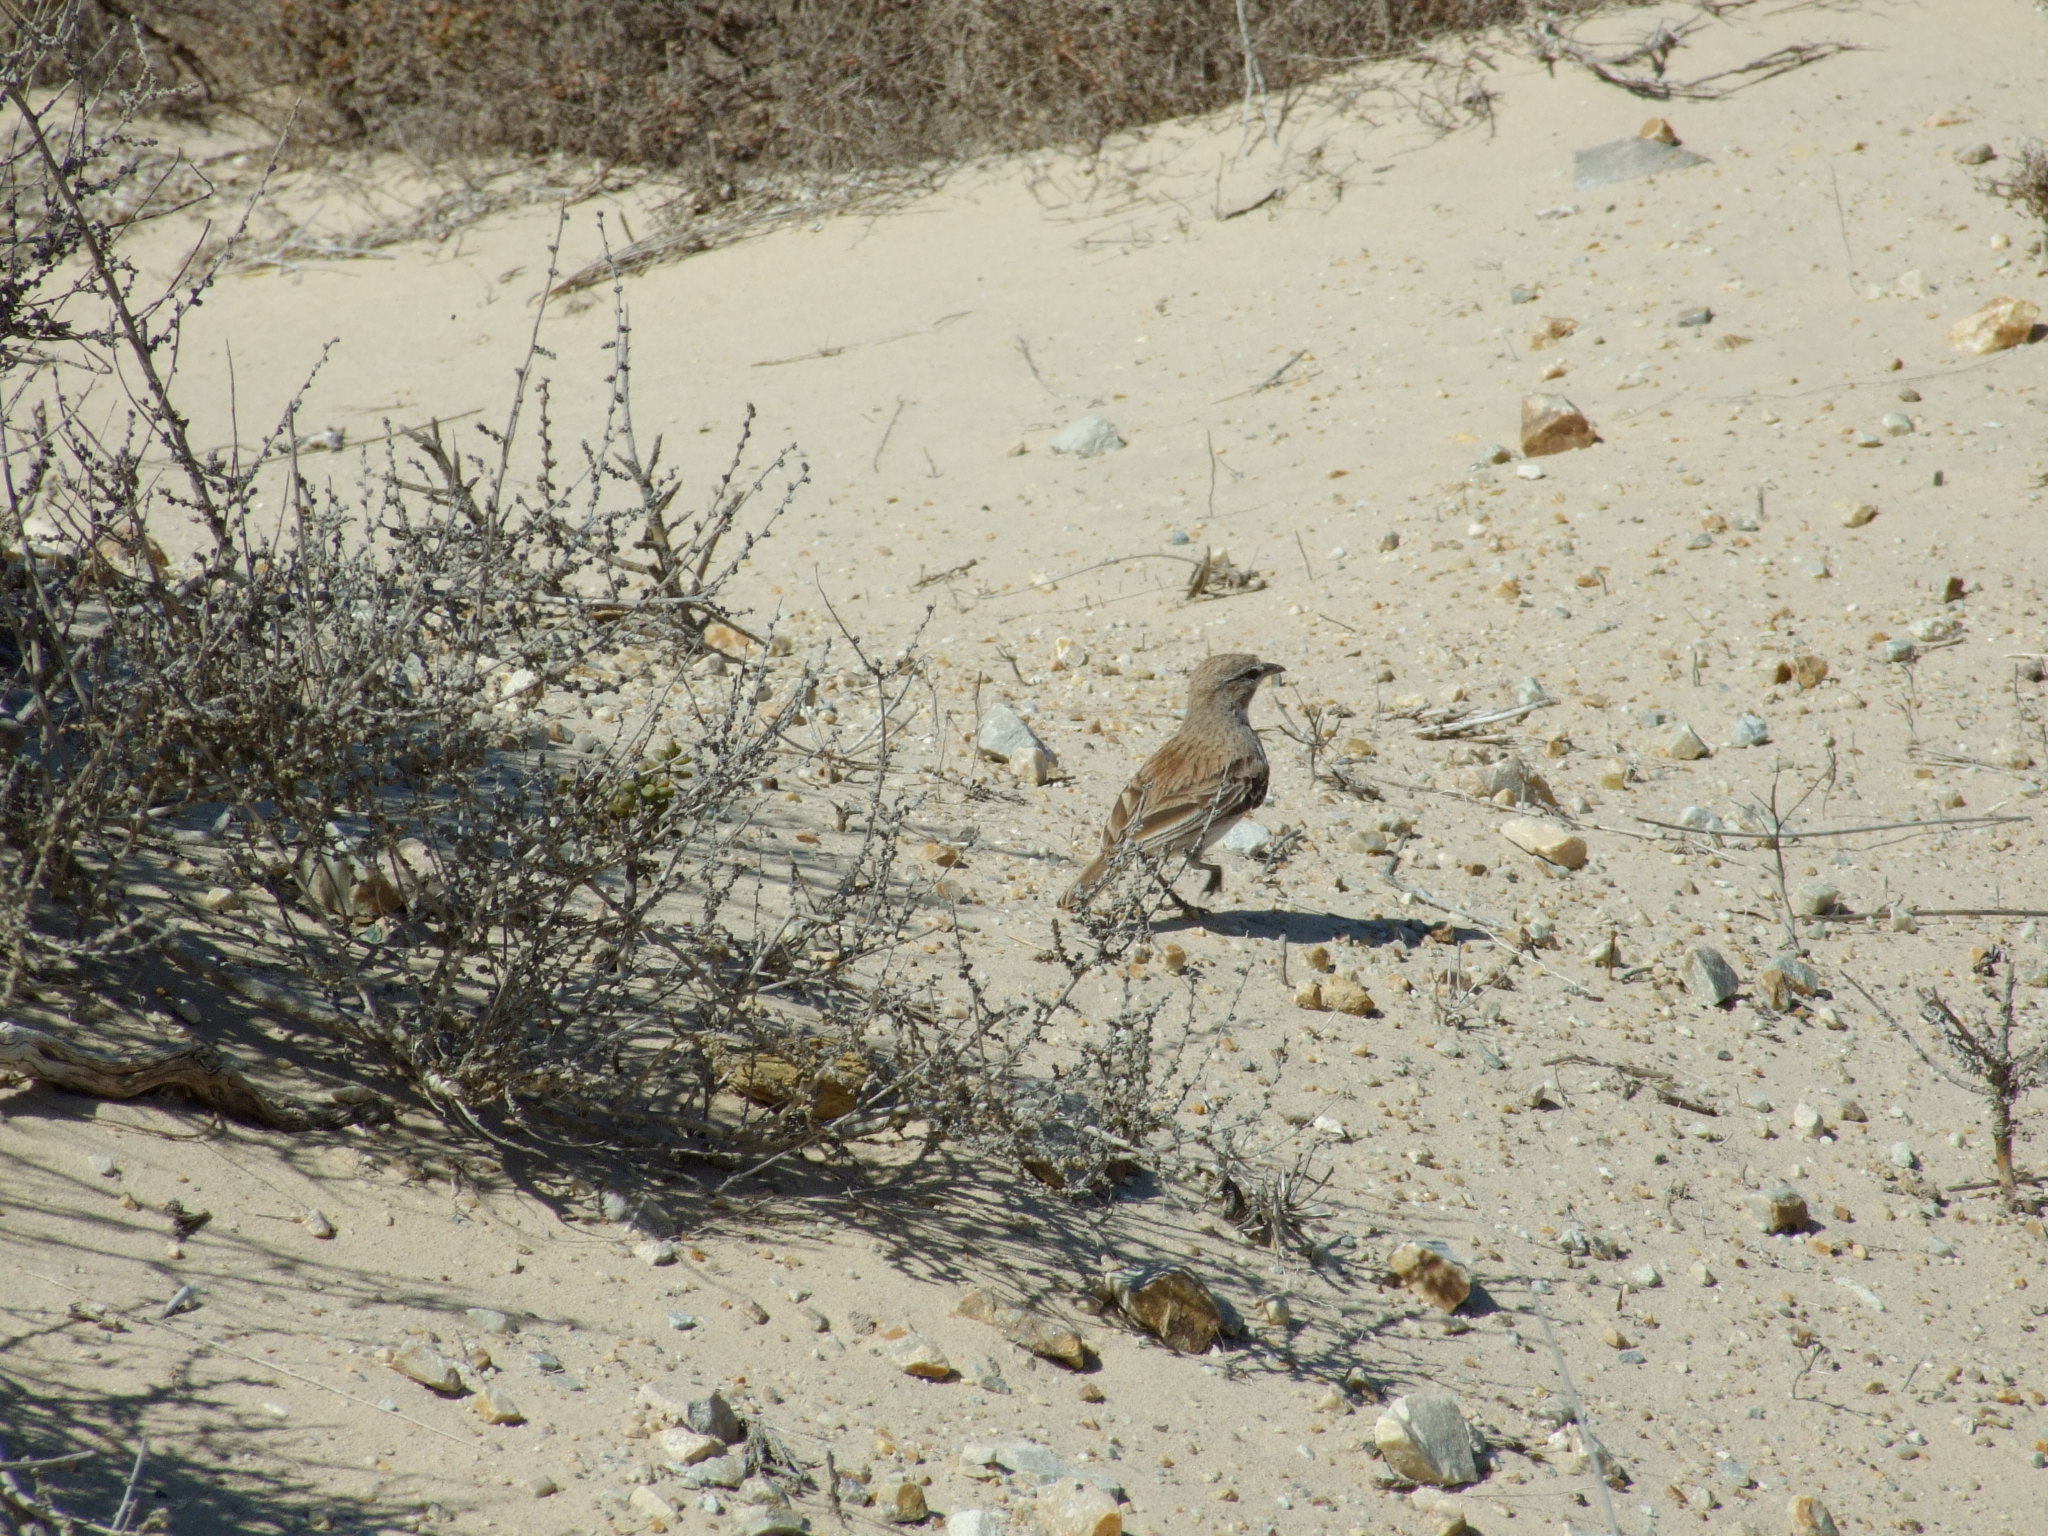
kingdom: Animalia
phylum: Chordata
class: Aves
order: Passeriformes
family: Alaudidae
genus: Calendulauda
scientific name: Calendulauda erythrochlamys
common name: Dune lark
